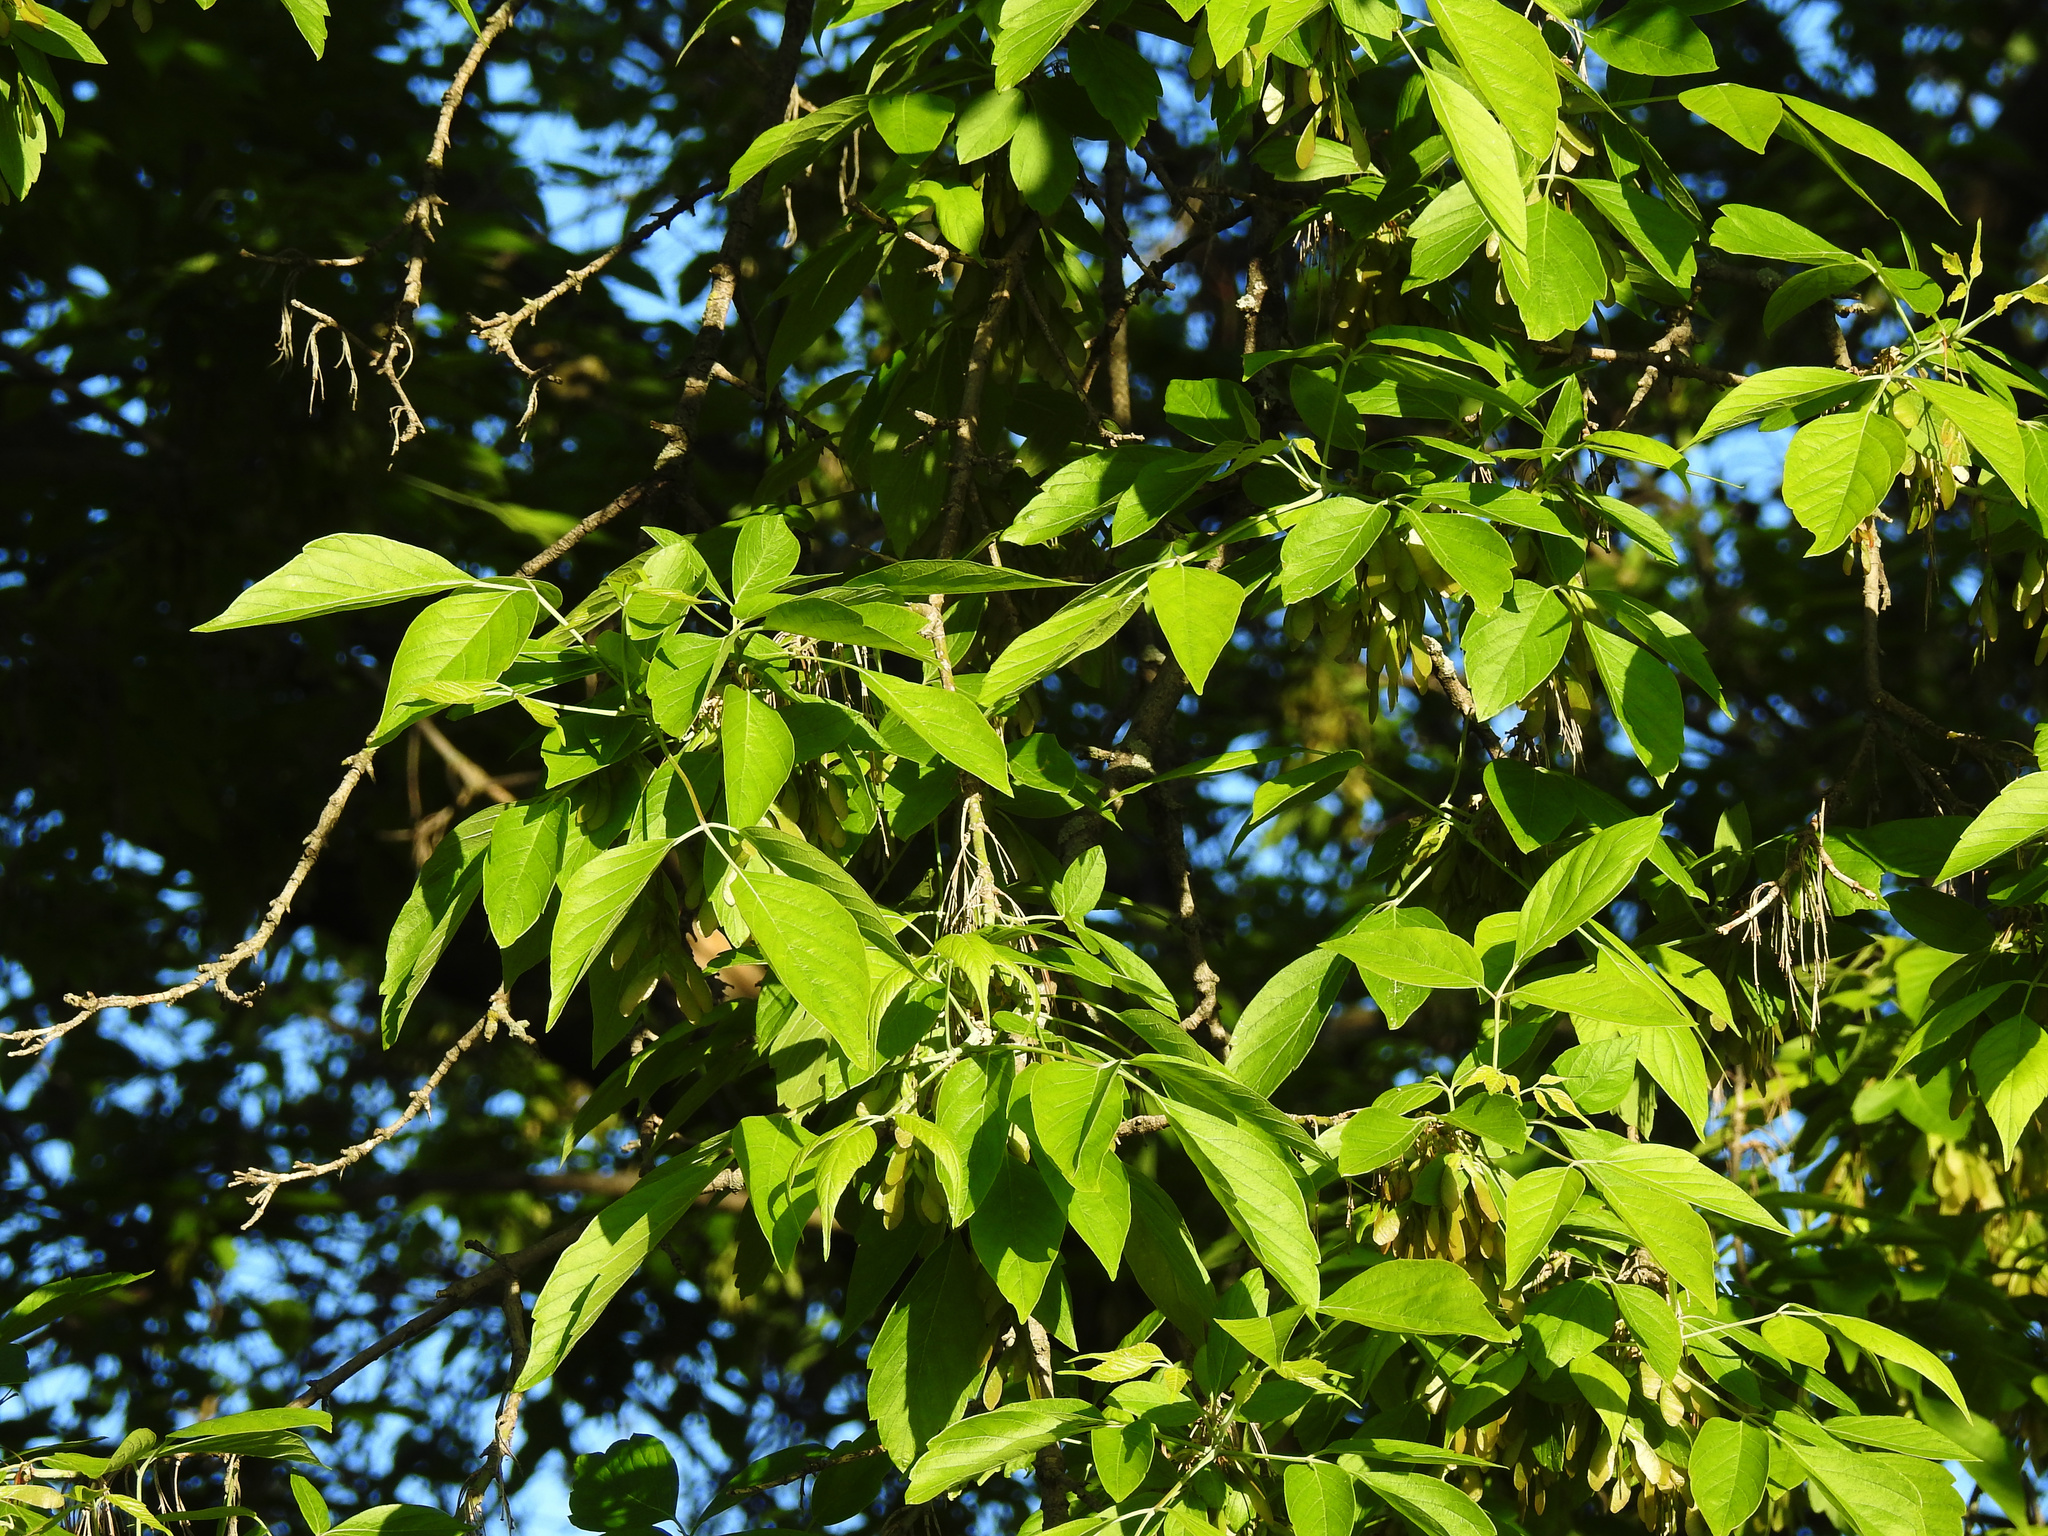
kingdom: Plantae
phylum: Tracheophyta
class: Magnoliopsida
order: Sapindales
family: Sapindaceae
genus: Acer
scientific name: Acer negundo
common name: Ashleaf maple
